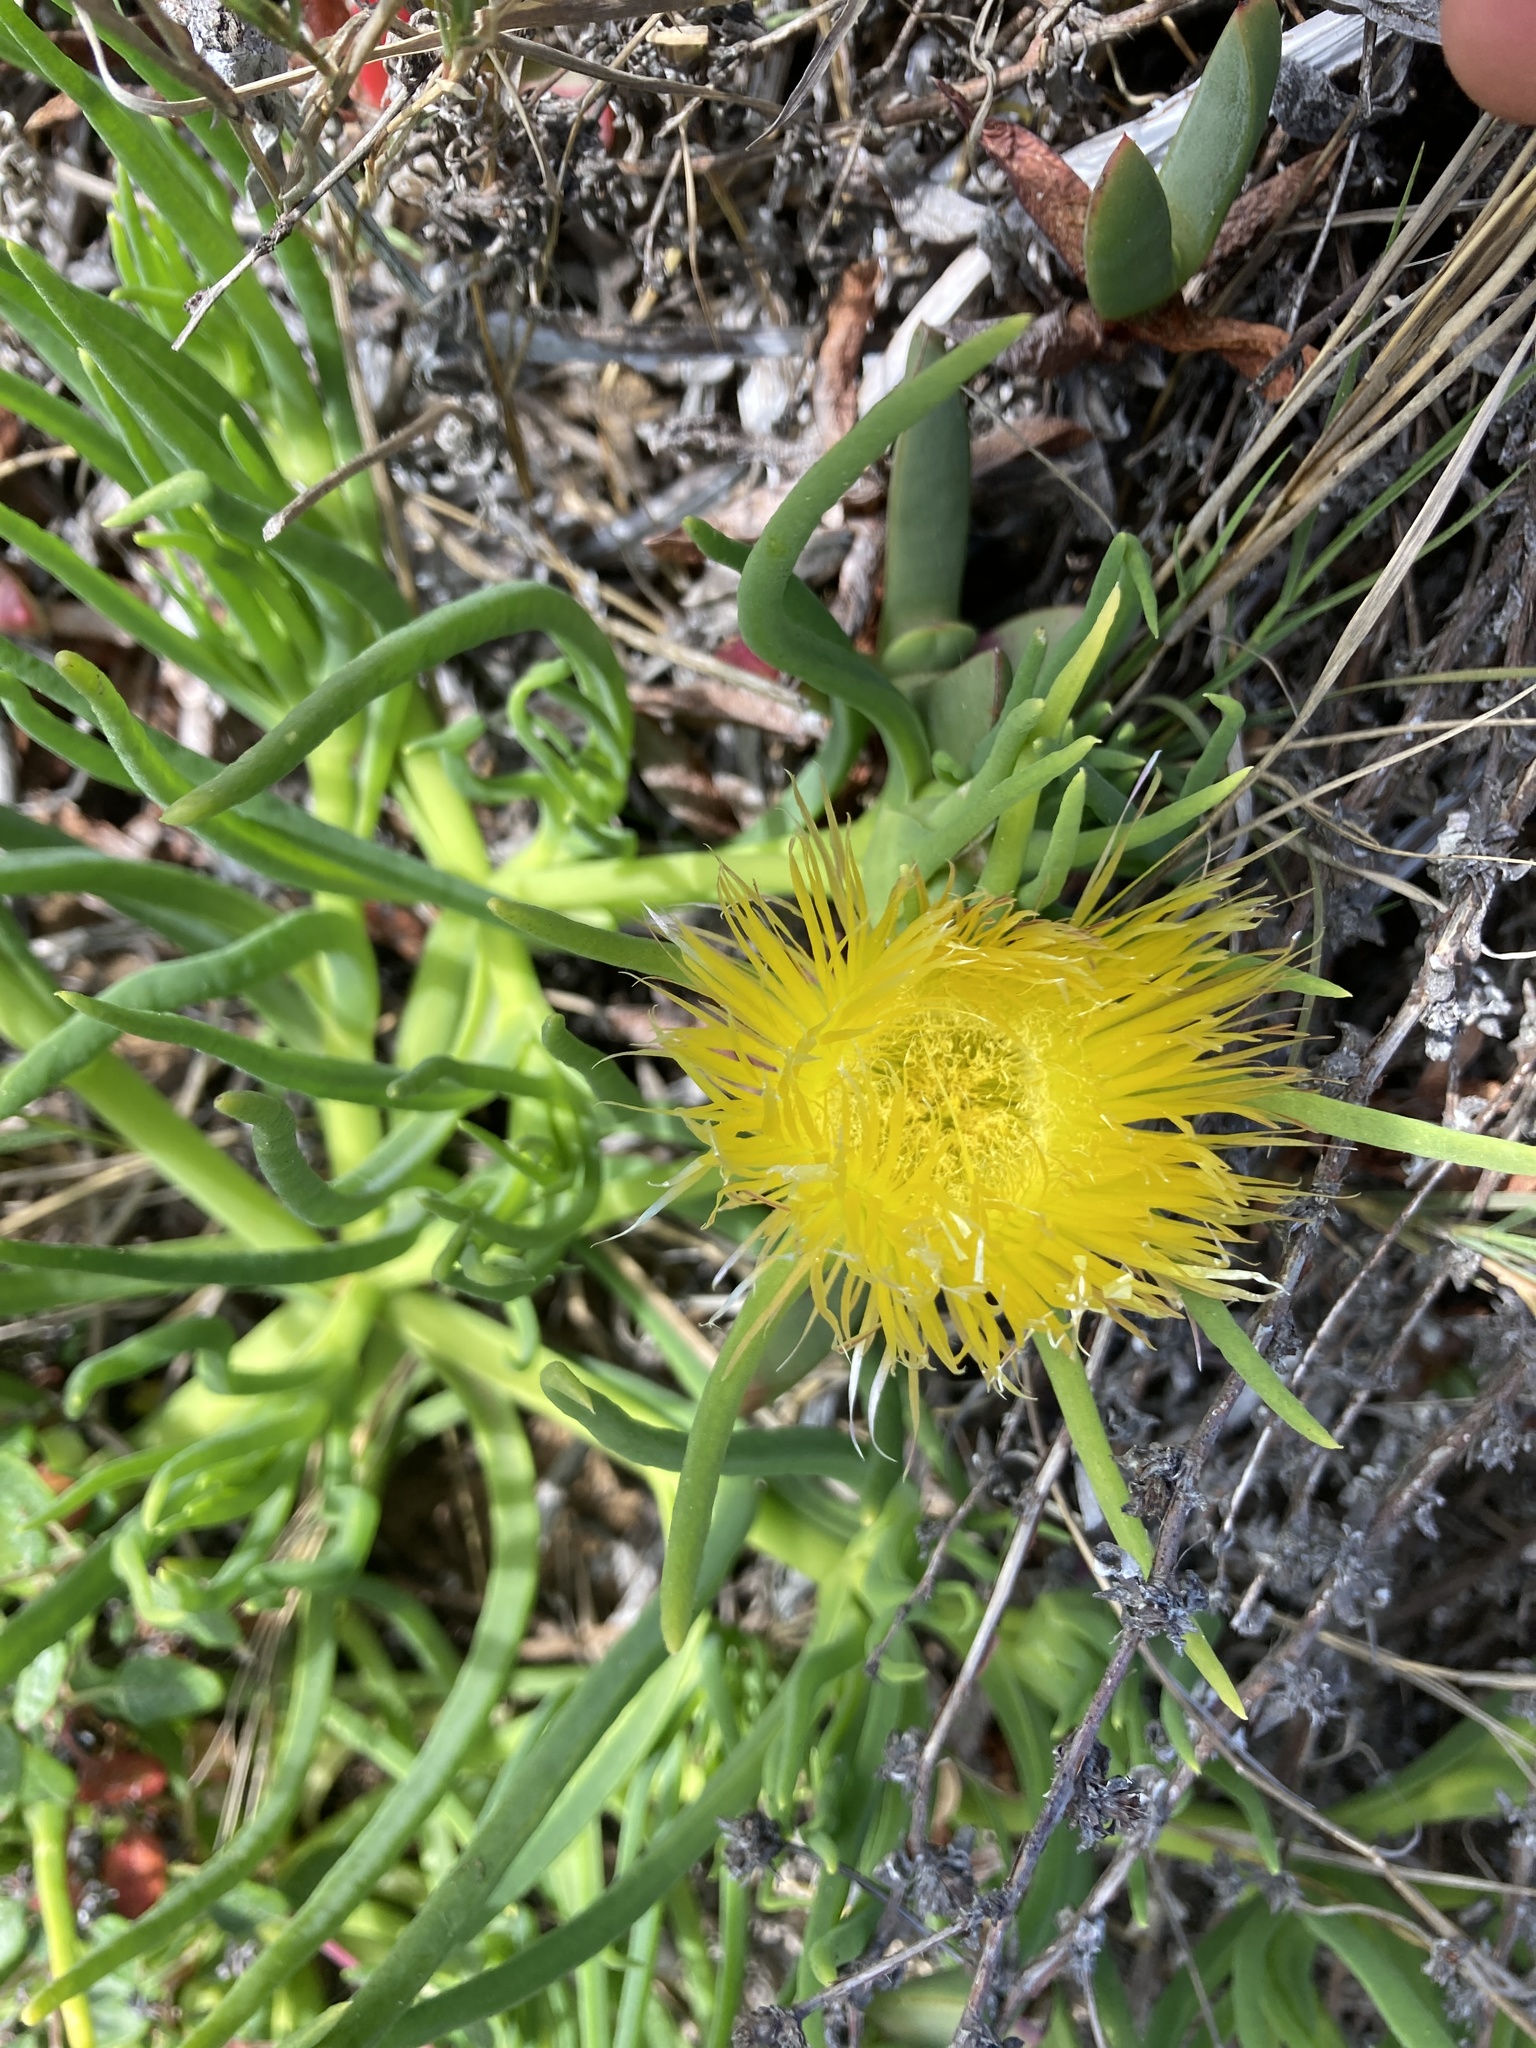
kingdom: Plantae
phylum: Tracheophyta
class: Magnoliopsida
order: Caryophyllales
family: Aizoaceae
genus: Conicosia
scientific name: Conicosia pugioniformis
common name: Narrow-leaved iceplant
